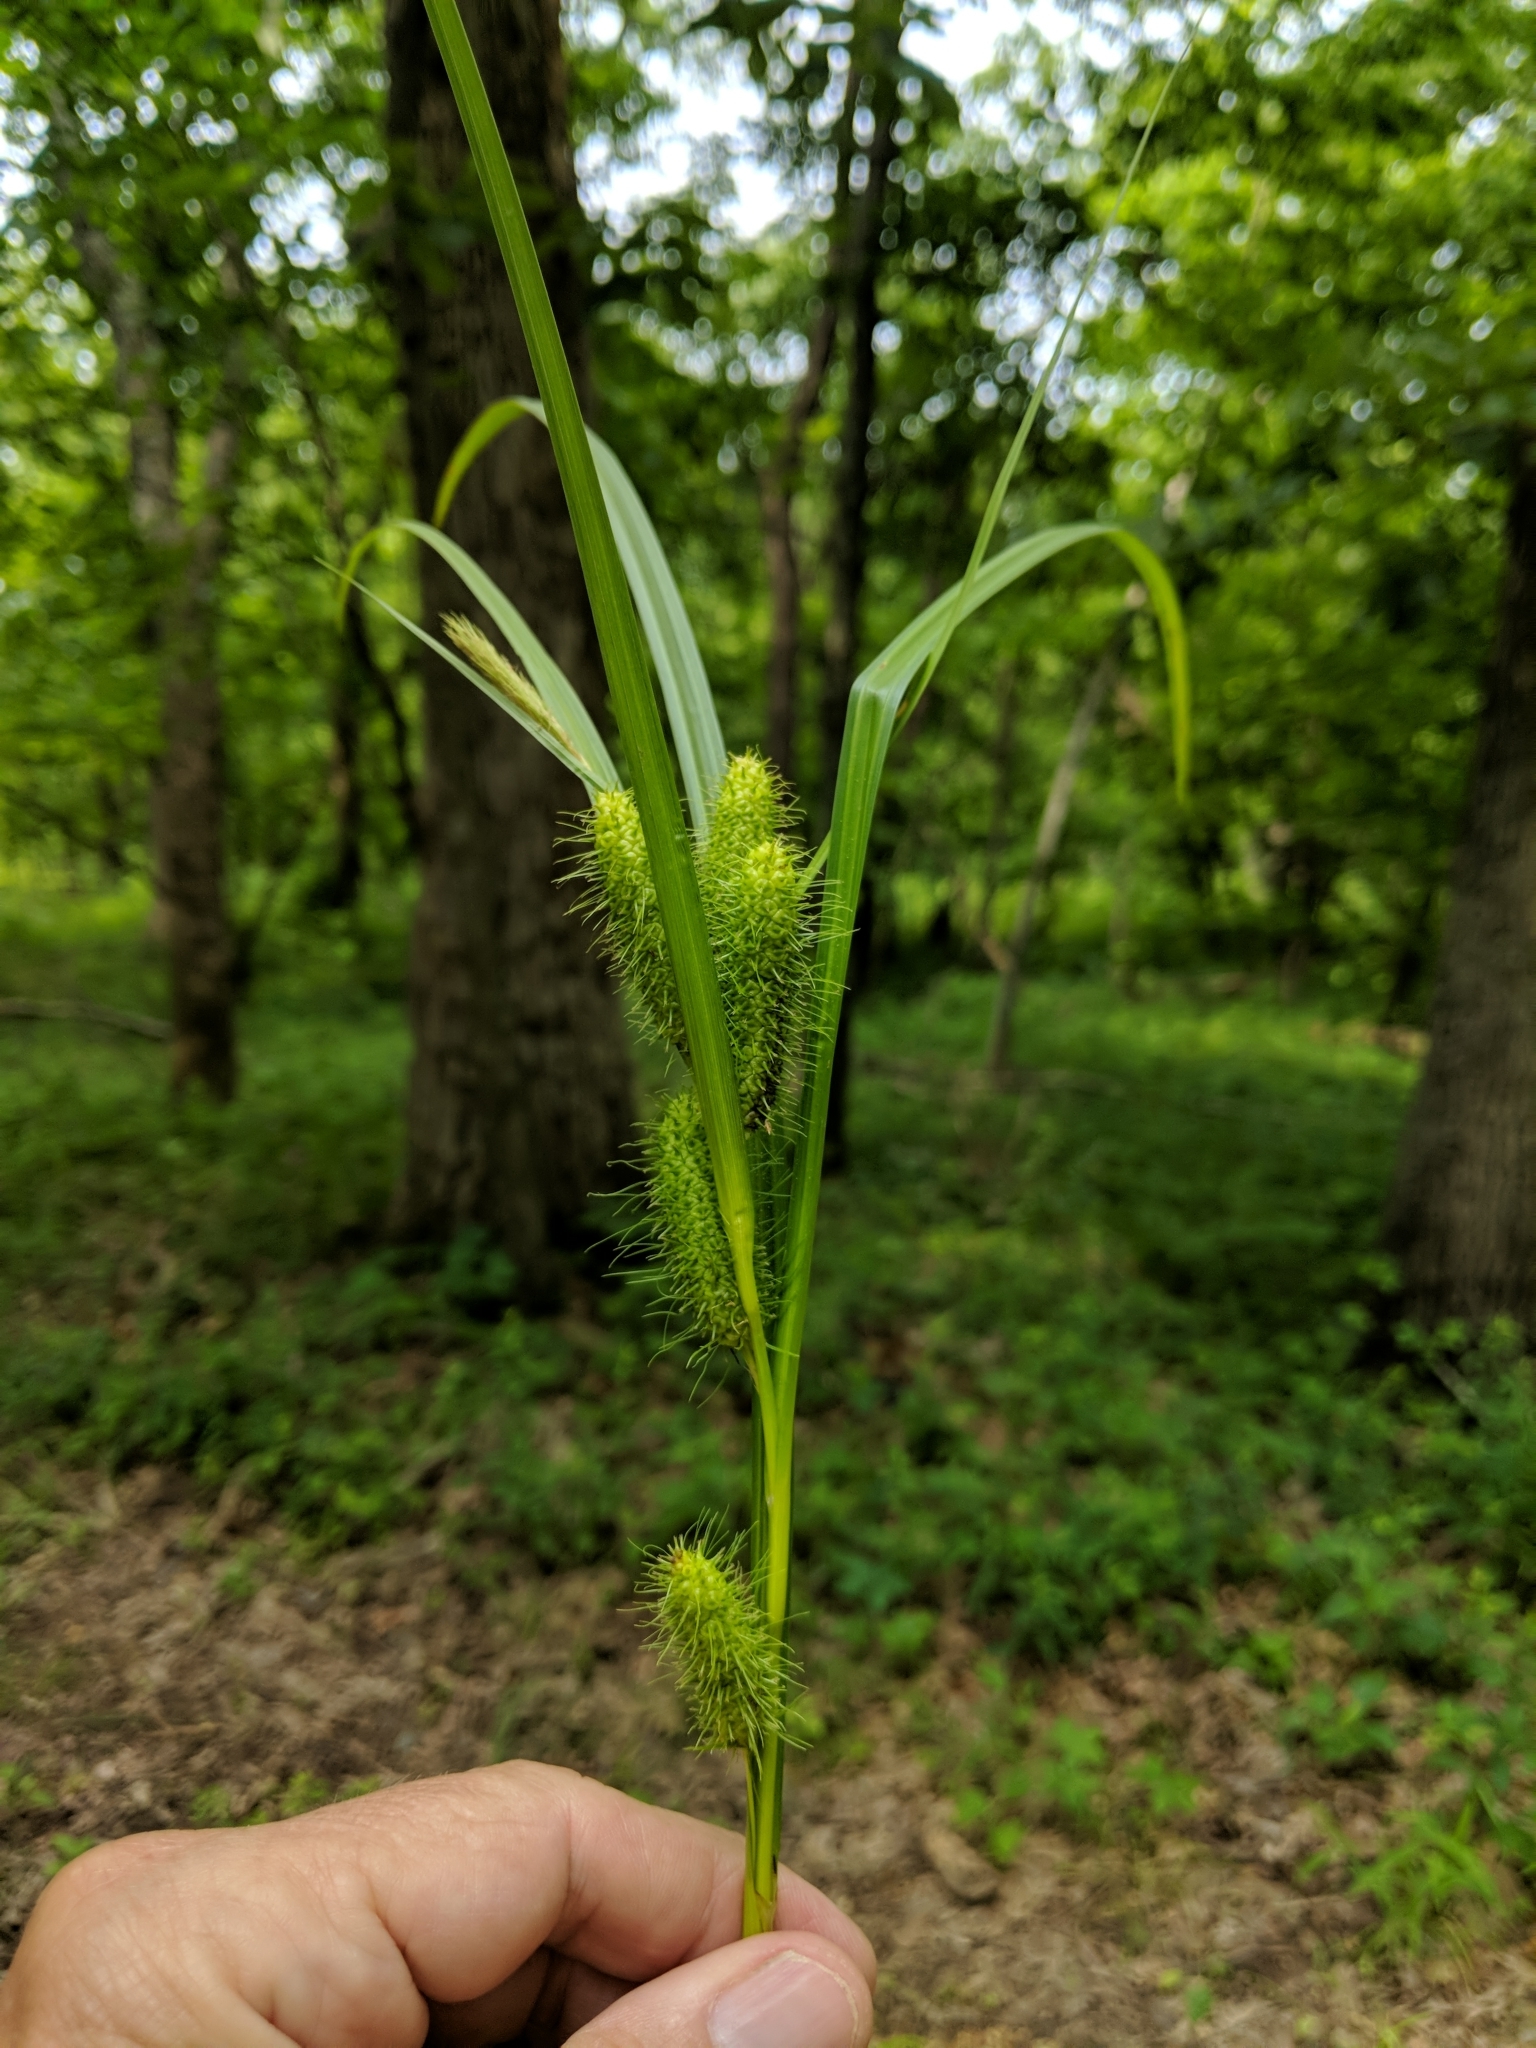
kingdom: Plantae
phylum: Tracheophyta
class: Liliopsida
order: Poales
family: Cyperaceae
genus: Carex
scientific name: Carex frankii
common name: Frank's sedge
